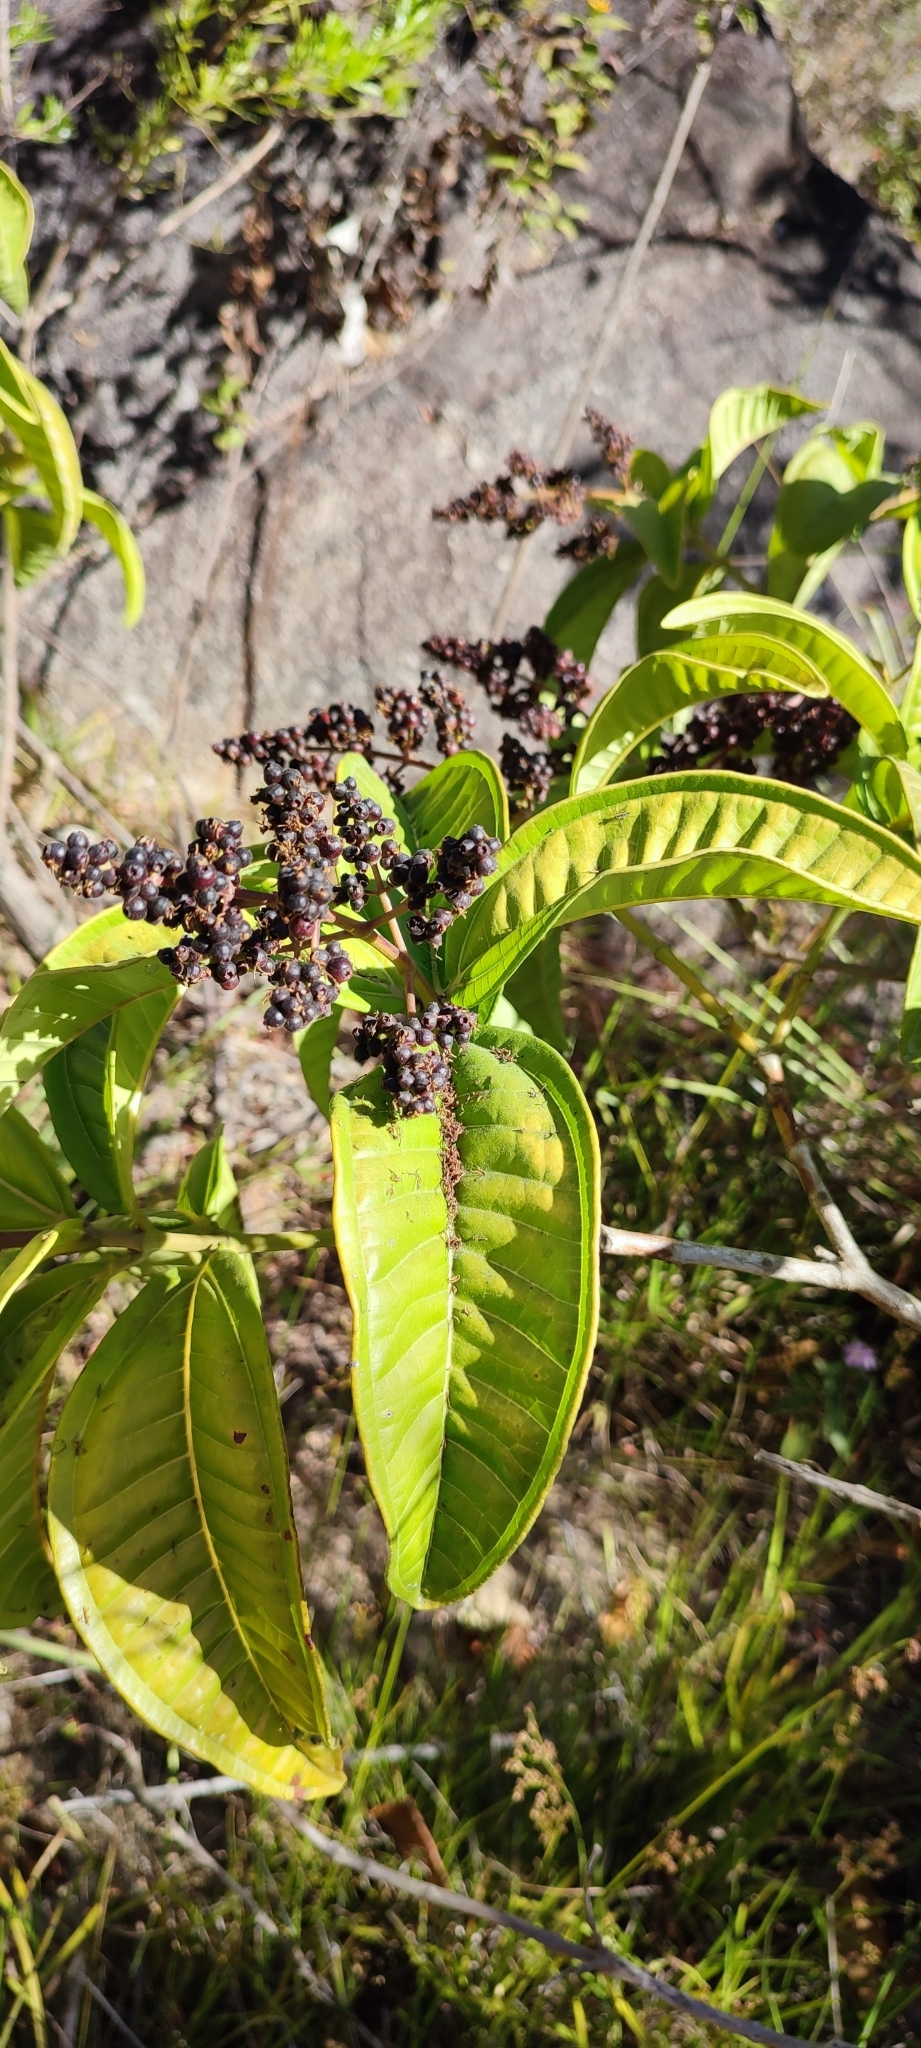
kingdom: Plantae
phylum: Tracheophyta
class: Magnoliopsida
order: Myrtales
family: Melastomataceae
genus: Miconia
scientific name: Miconia chamissois
